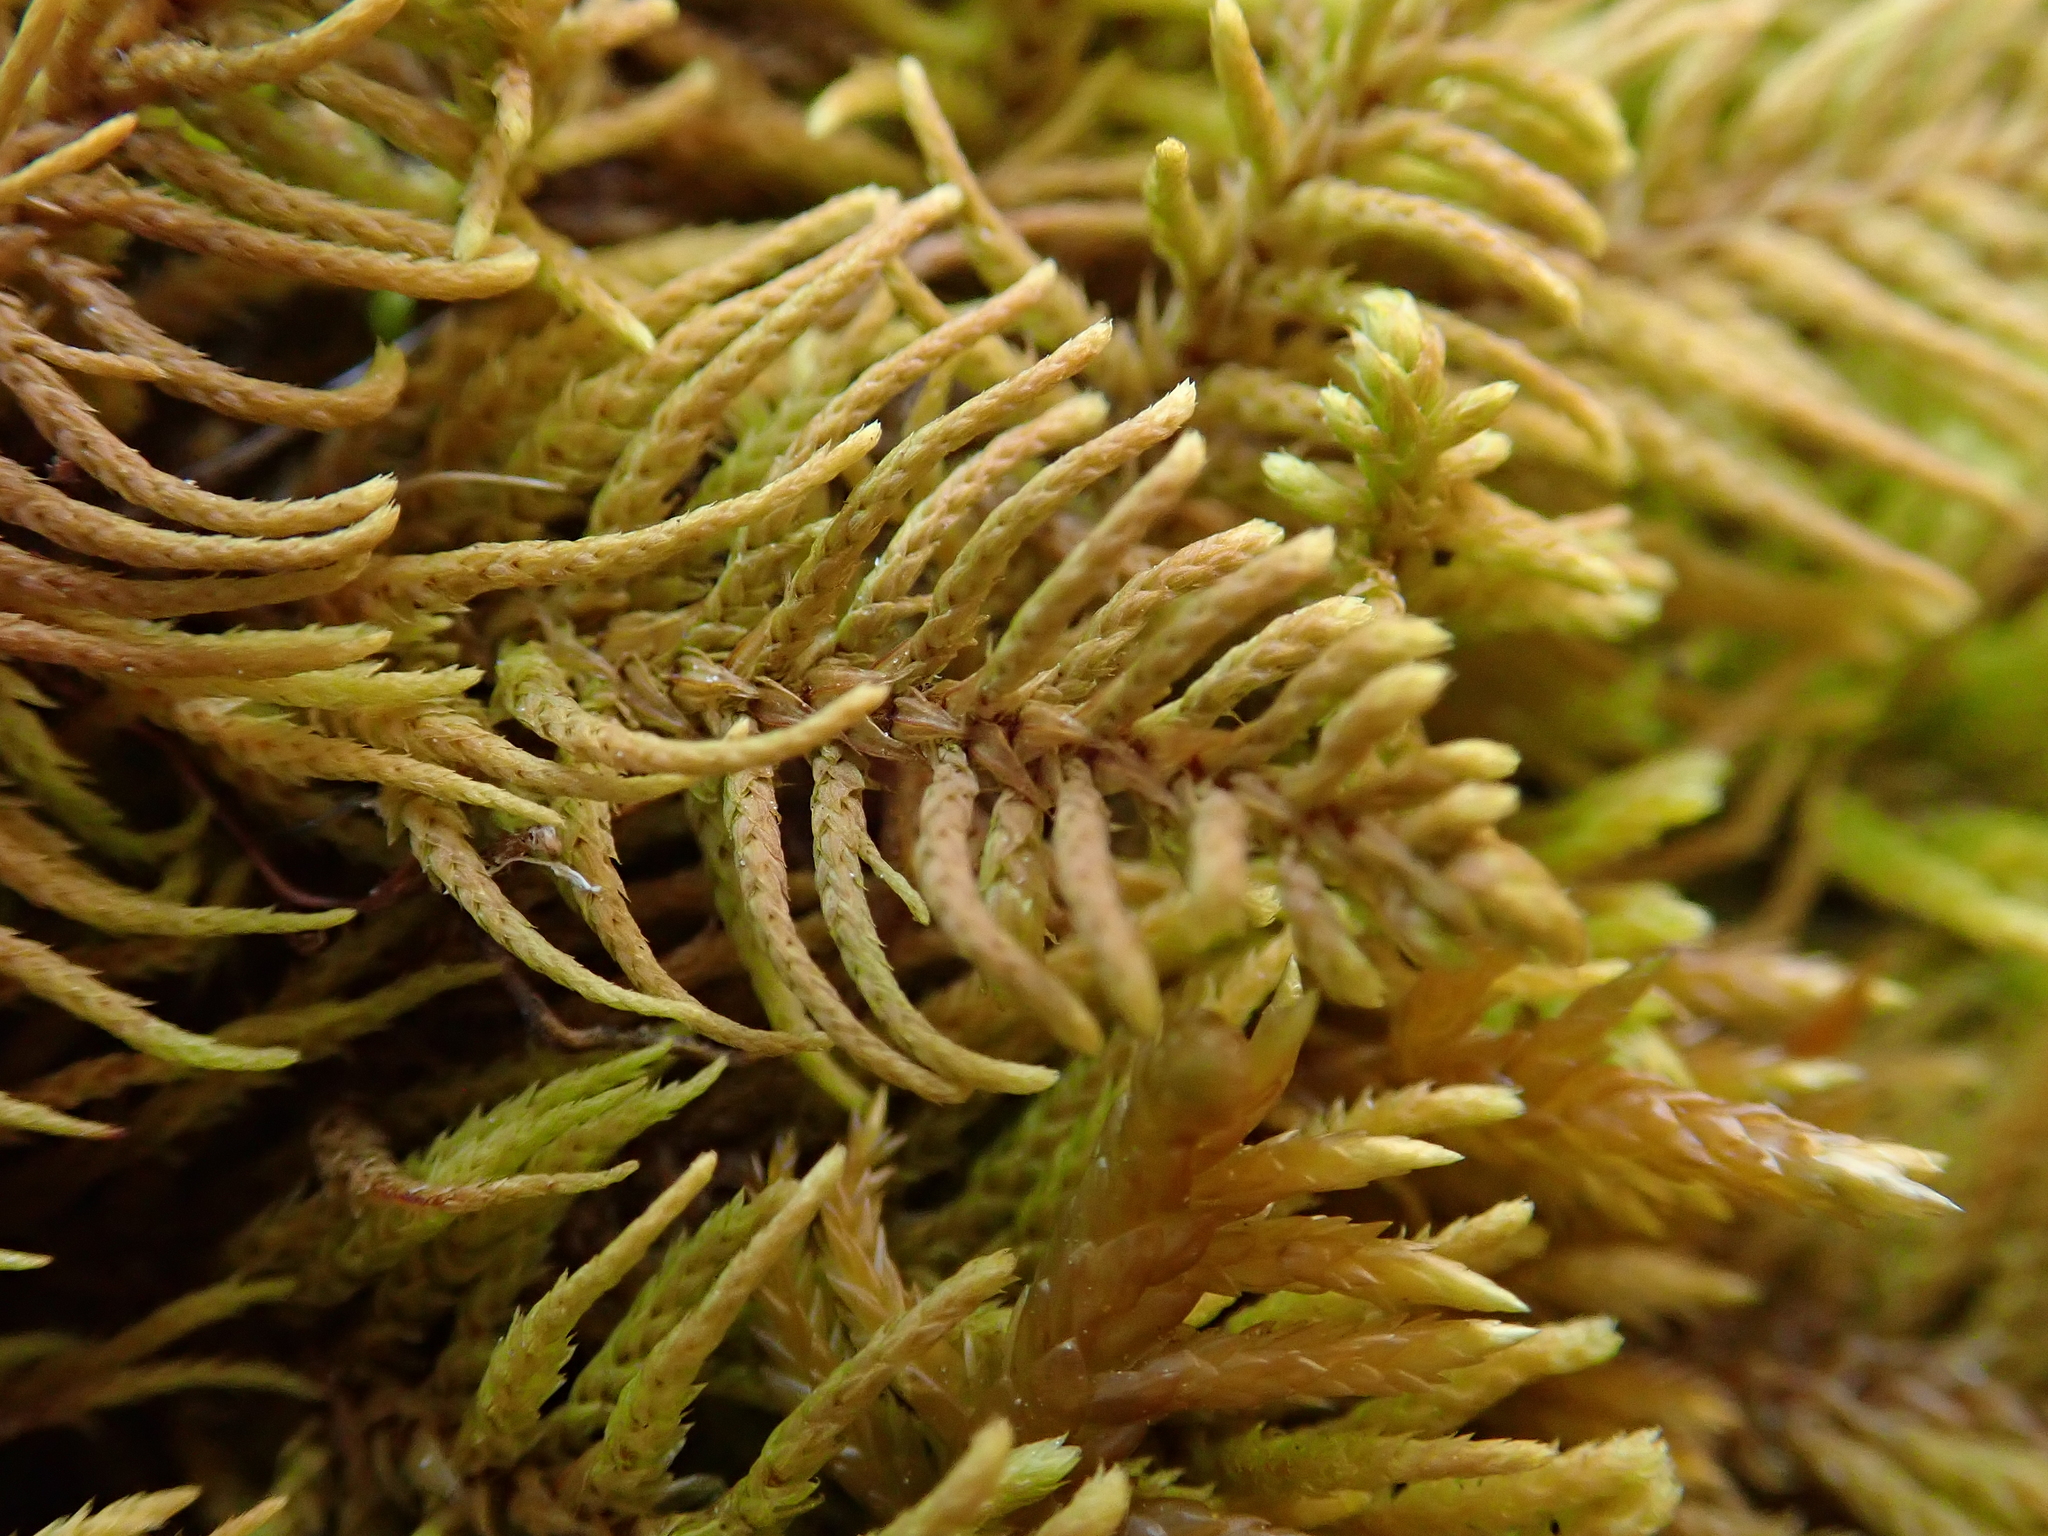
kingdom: Plantae
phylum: Bryophyta
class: Bryopsida
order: Hypnales
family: Thuidiaceae
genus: Abietinella
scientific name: Abietinella abietina
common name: Wiry fern moss
